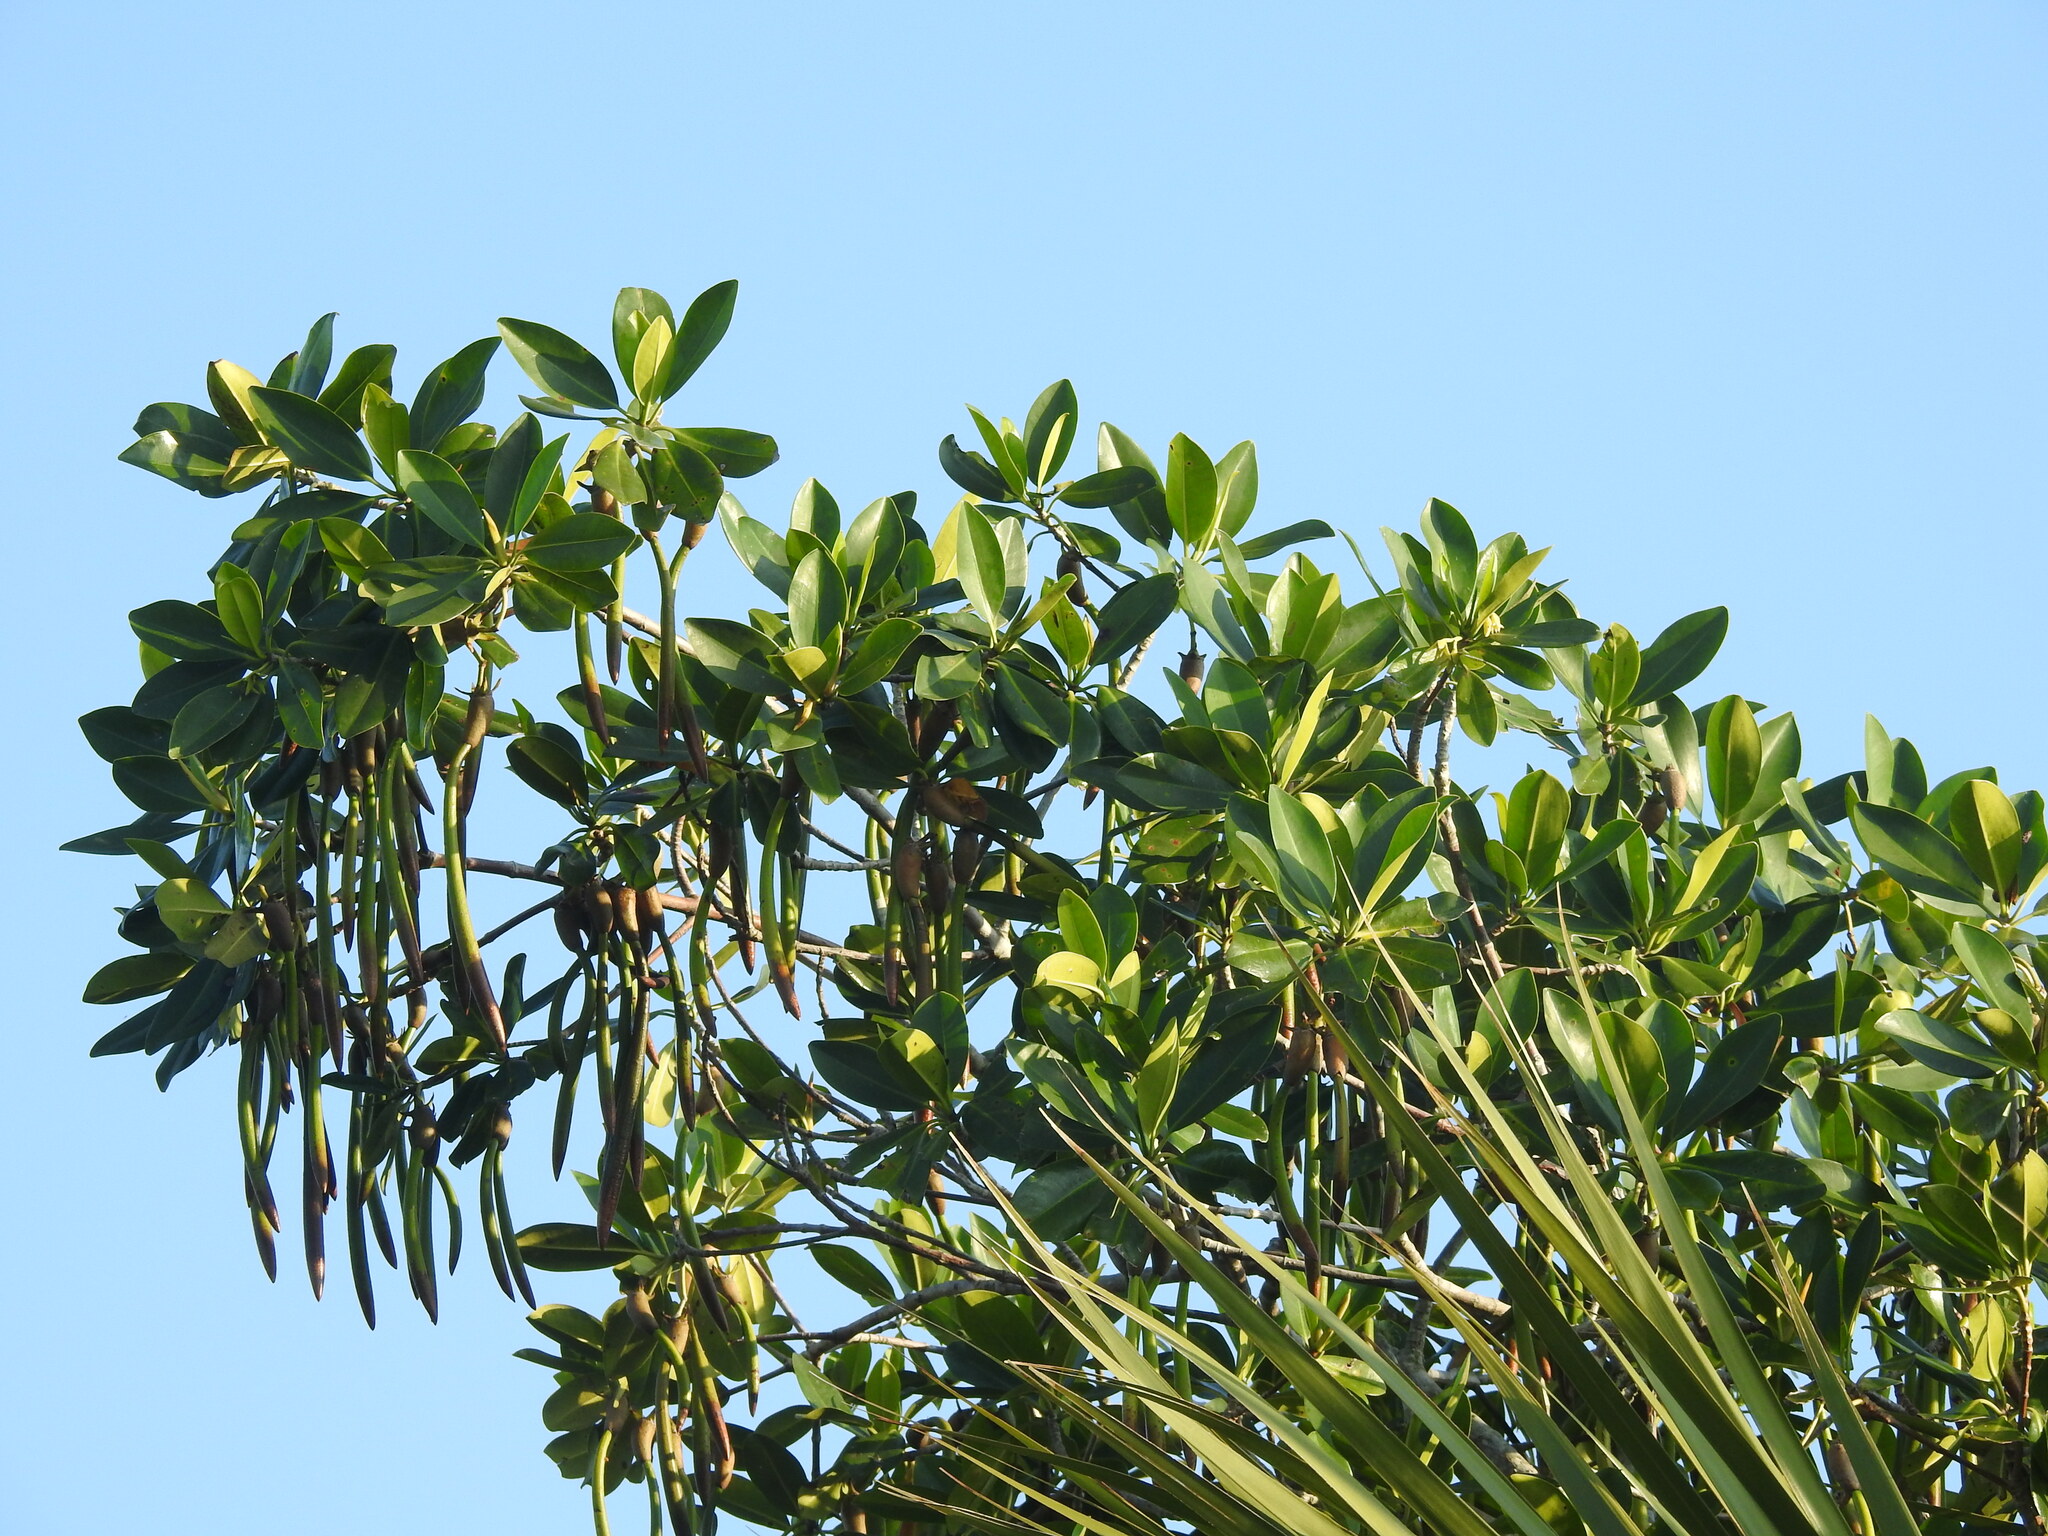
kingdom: Plantae
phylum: Tracheophyta
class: Magnoliopsida
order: Malpighiales
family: Rhizophoraceae
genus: Rhizophora
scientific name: Rhizophora mangle
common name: Red mangrove
